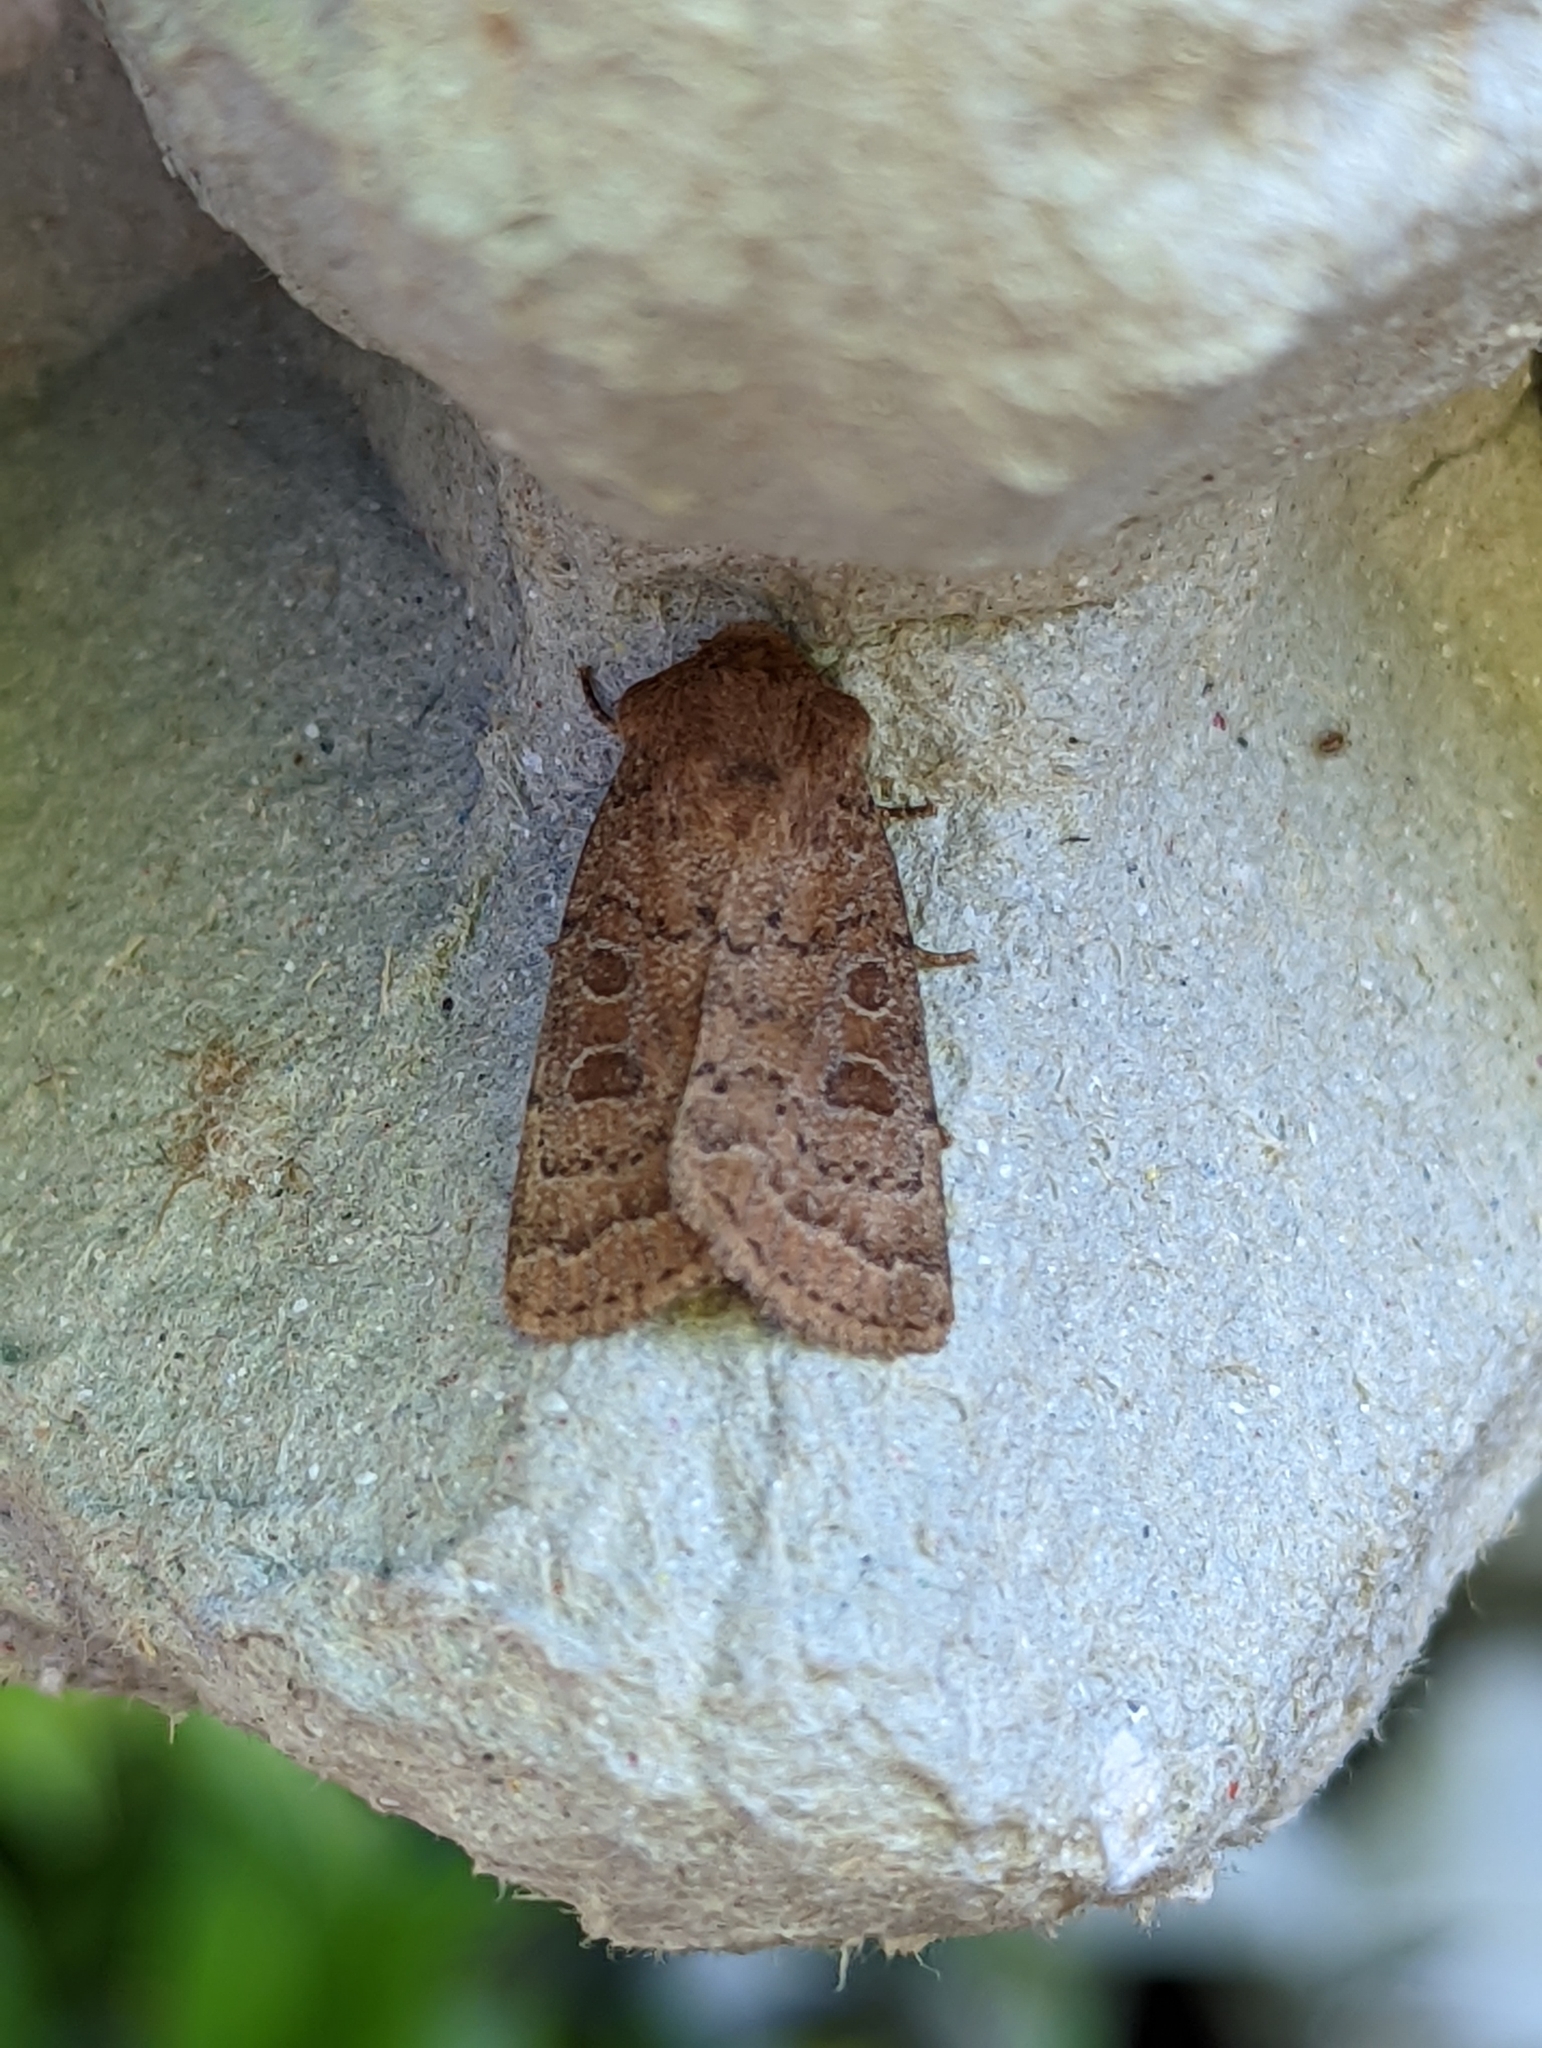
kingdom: Animalia
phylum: Arthropoda
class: Insecta
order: Lepidoptera
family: Noctuidae
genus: Hoplodrina
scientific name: Hoplodrina octogenaria
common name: Uncertain
